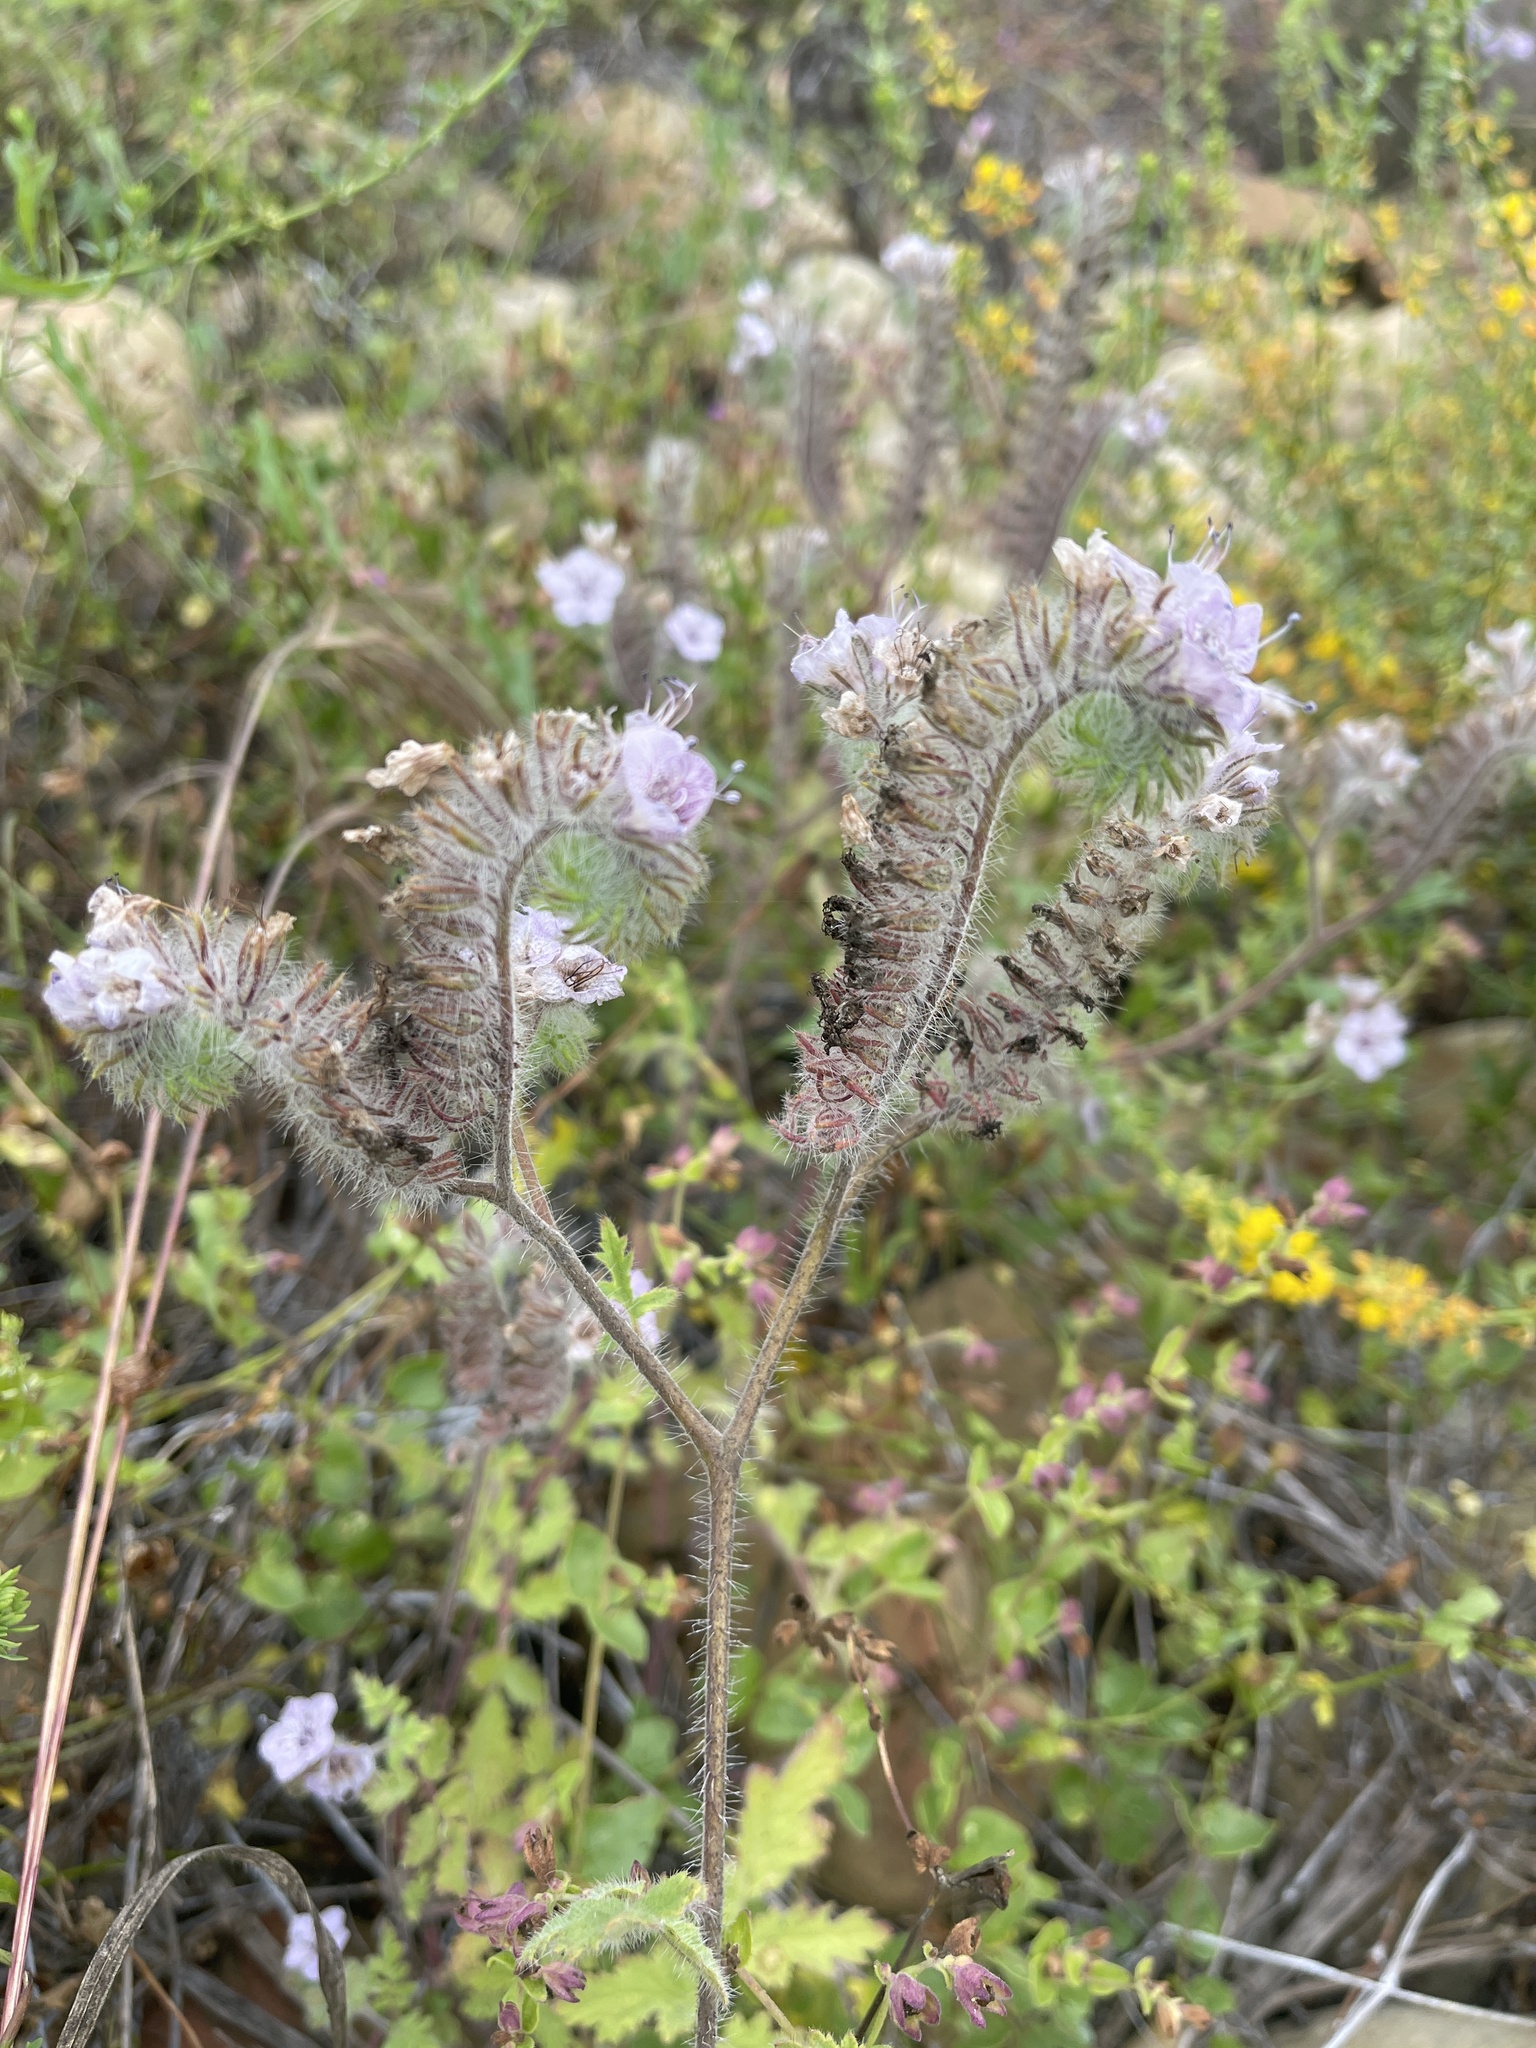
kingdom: Plantae
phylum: Tracheophyta
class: Magnoliopsida
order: Boraginales
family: Hydrophyllaceae
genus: Phacelia
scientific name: Phacelia cicutaria
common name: Caterpillar phacelia
